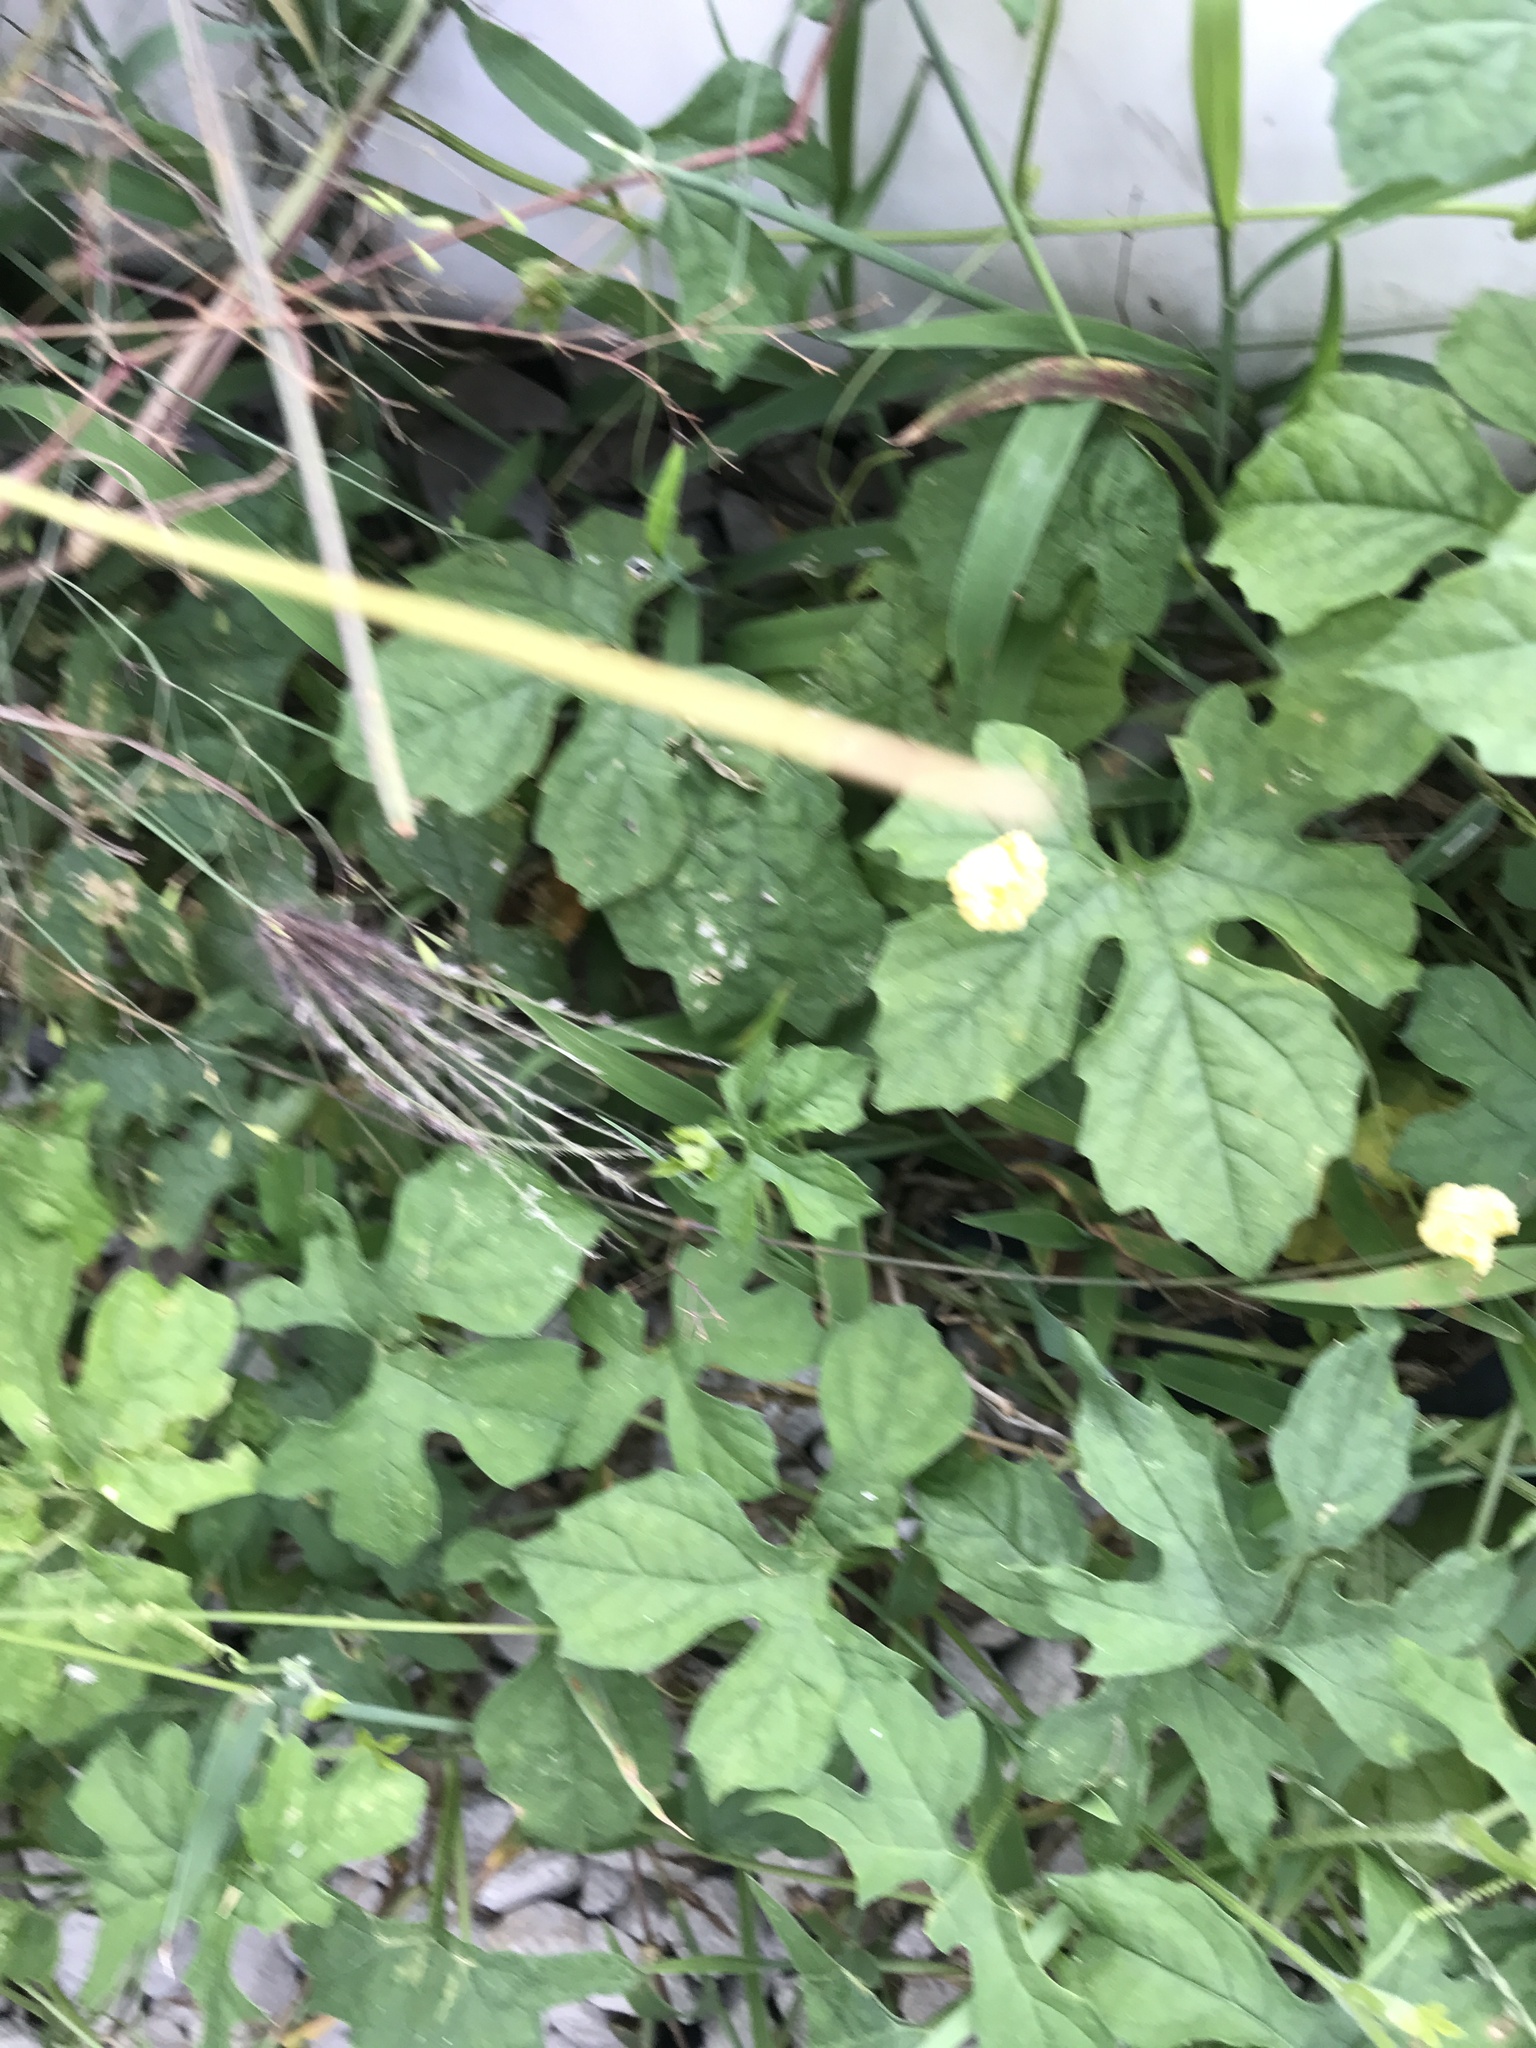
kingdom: Plantae
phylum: Tracheophyta
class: Magnoliopsida
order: Cucurbitales
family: Cucurbitaceae
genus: Momordica
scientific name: Momordica charantia
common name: Balsampear
